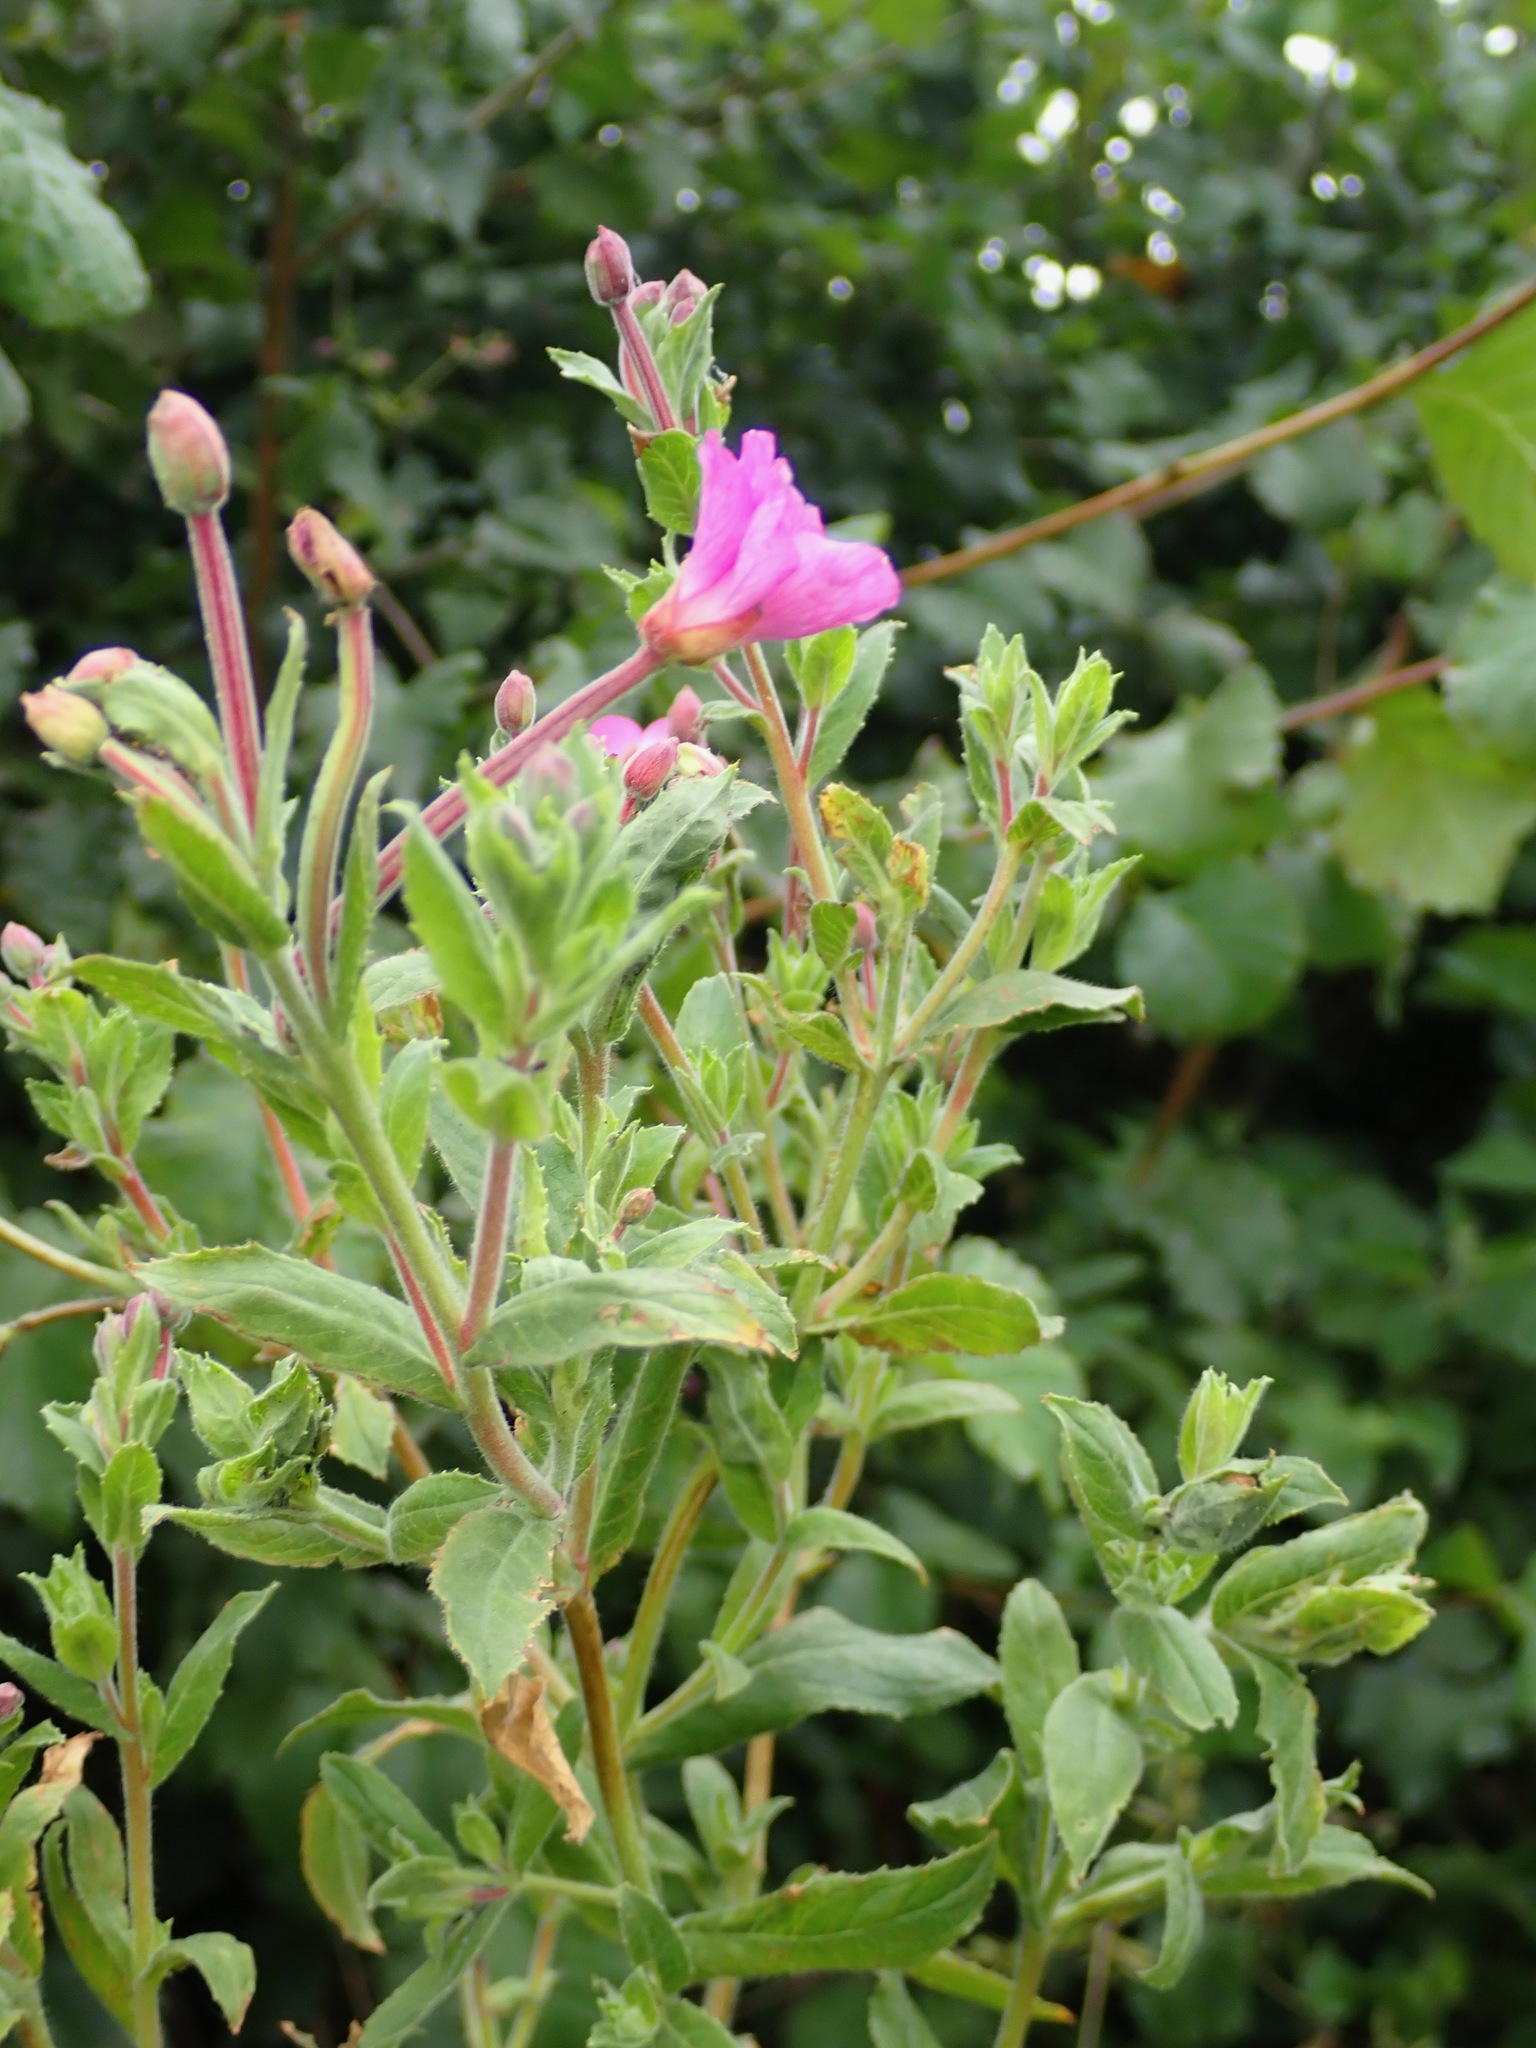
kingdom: Plantae
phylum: Tracheophyta
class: Magnoliopsida
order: Myrtales
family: Onagraceae
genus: Epilobium
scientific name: Epilobium hirsutum
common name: Great willowherb
